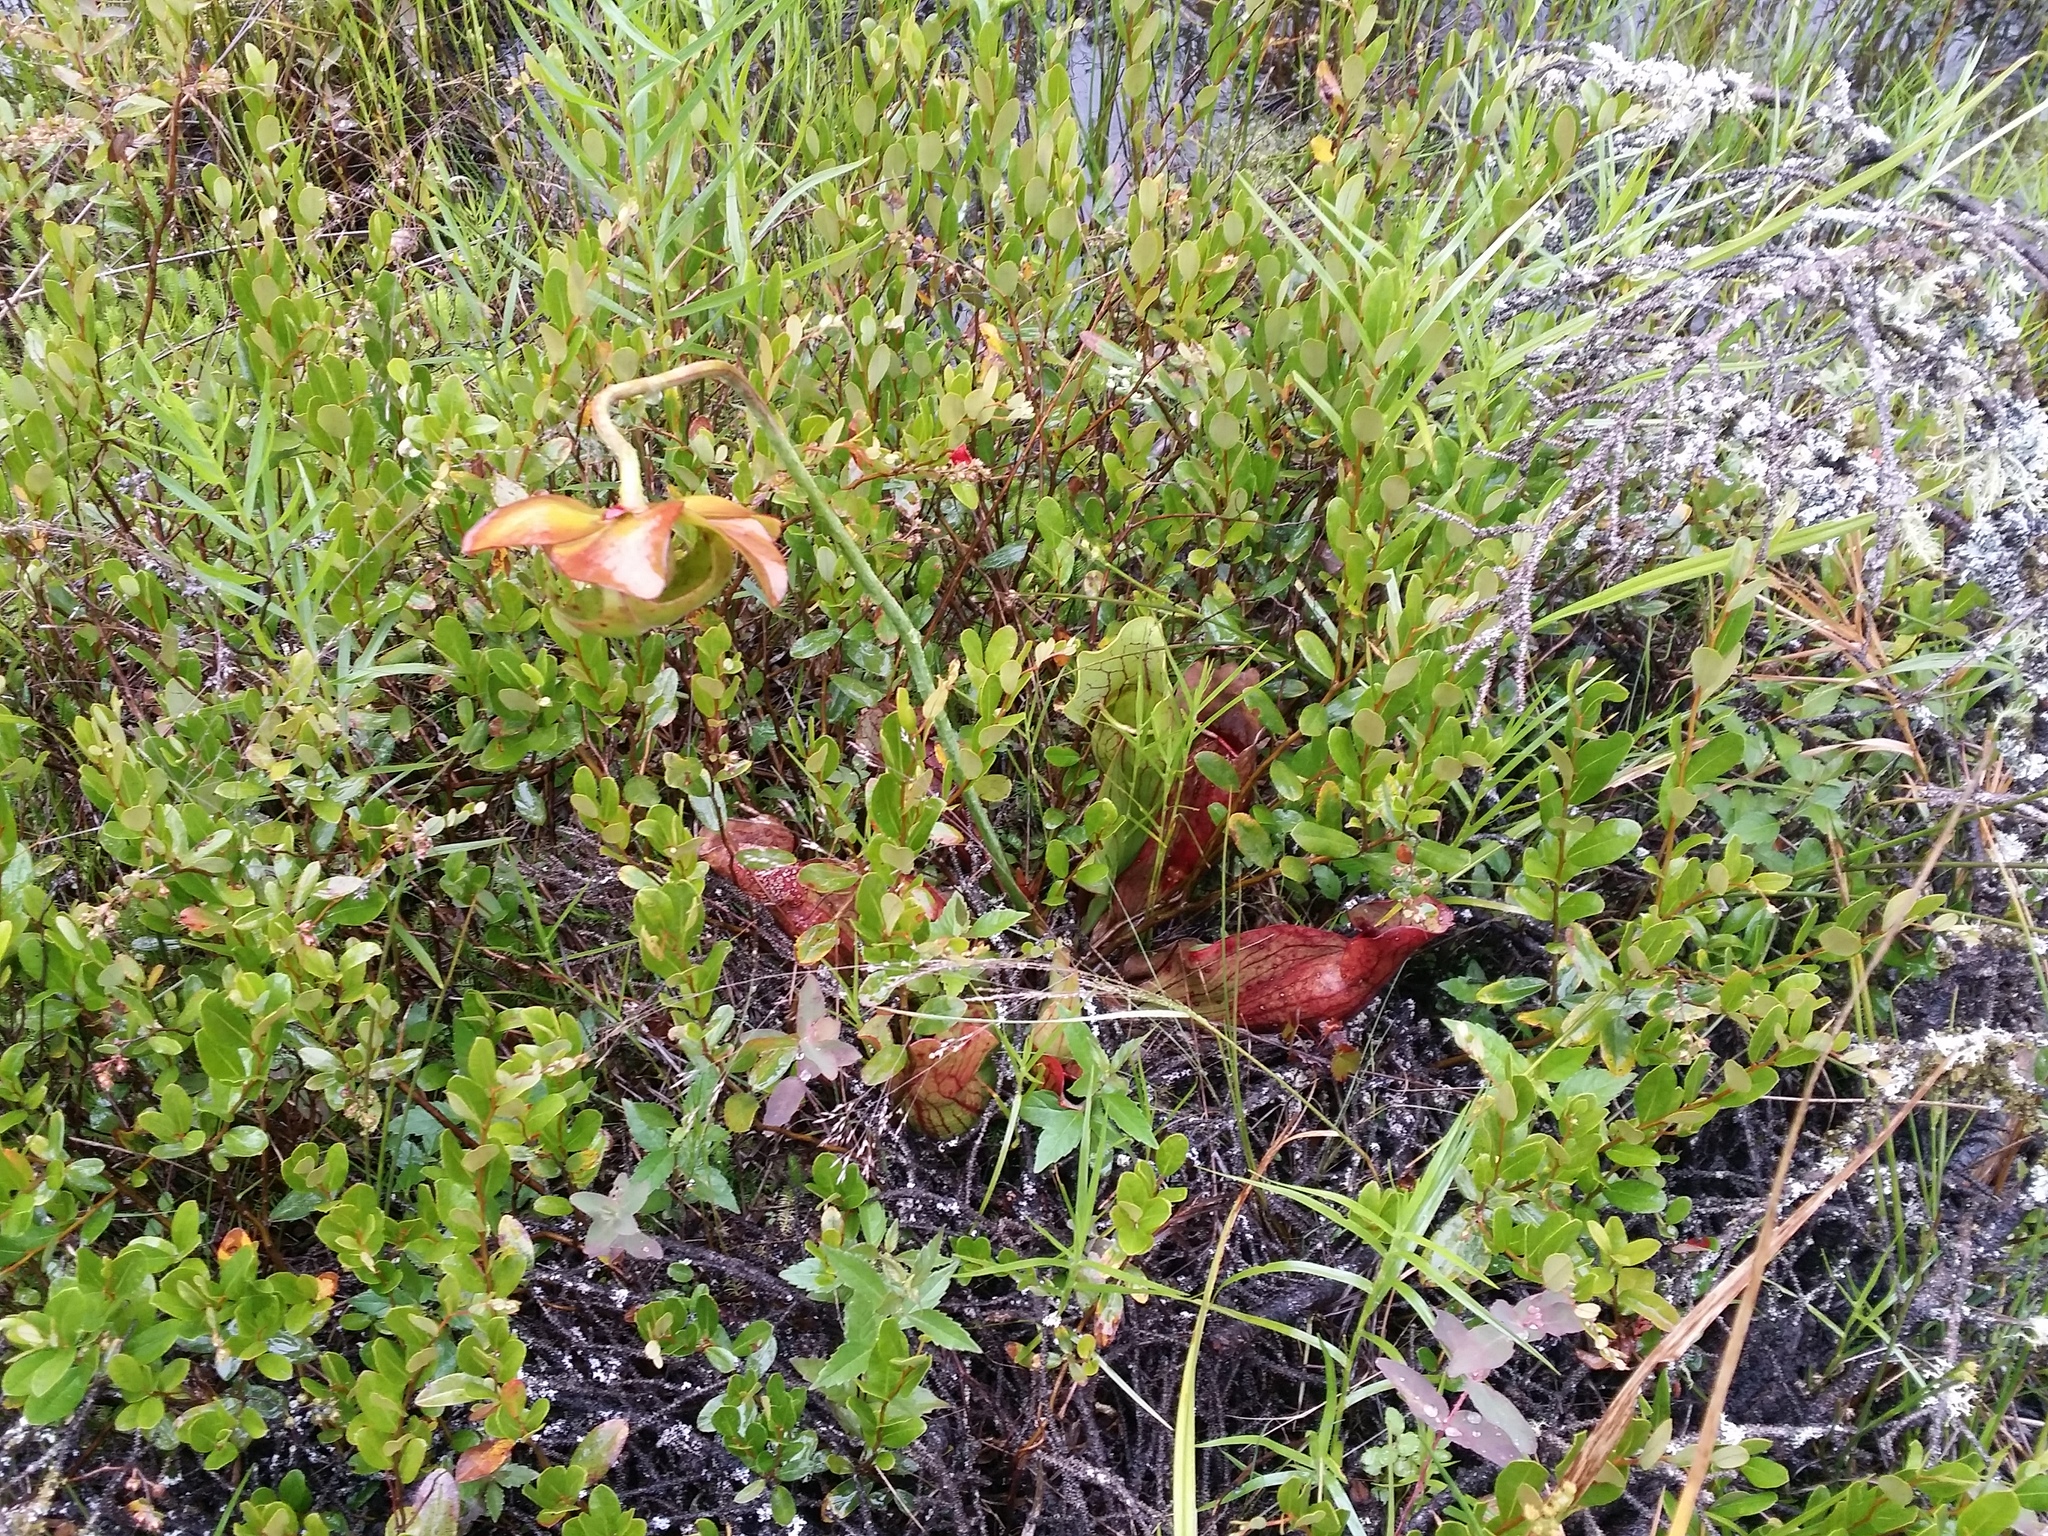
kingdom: Plantae
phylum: Tracheophyta
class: Magnoliopsida
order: Ericales
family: Sarraceniaceae
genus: Sarracenia
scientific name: Sarracenia purpurea
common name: Pitcherplant
